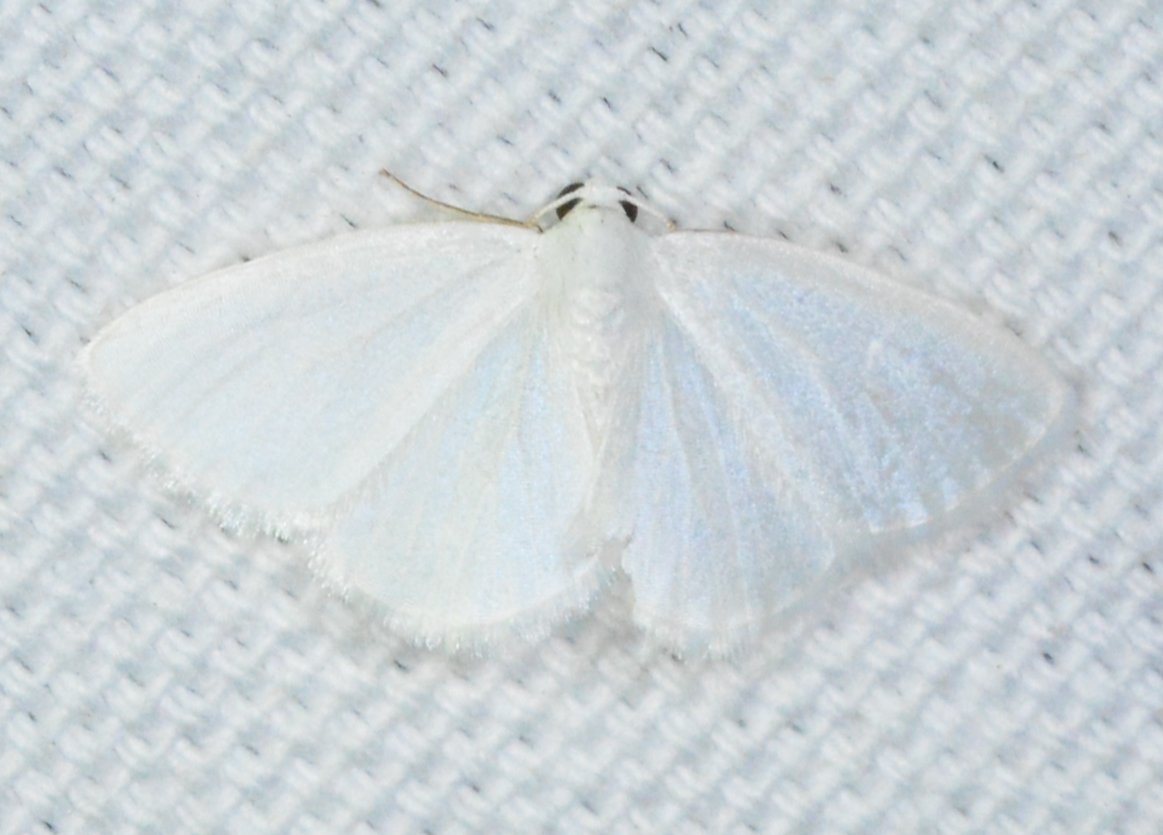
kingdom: Animalia
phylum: Arthropoda
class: Insecta
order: Lepidoptera
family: Geometridae
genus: Lomographa
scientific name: Lomographa vestaliata
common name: White spring moth
